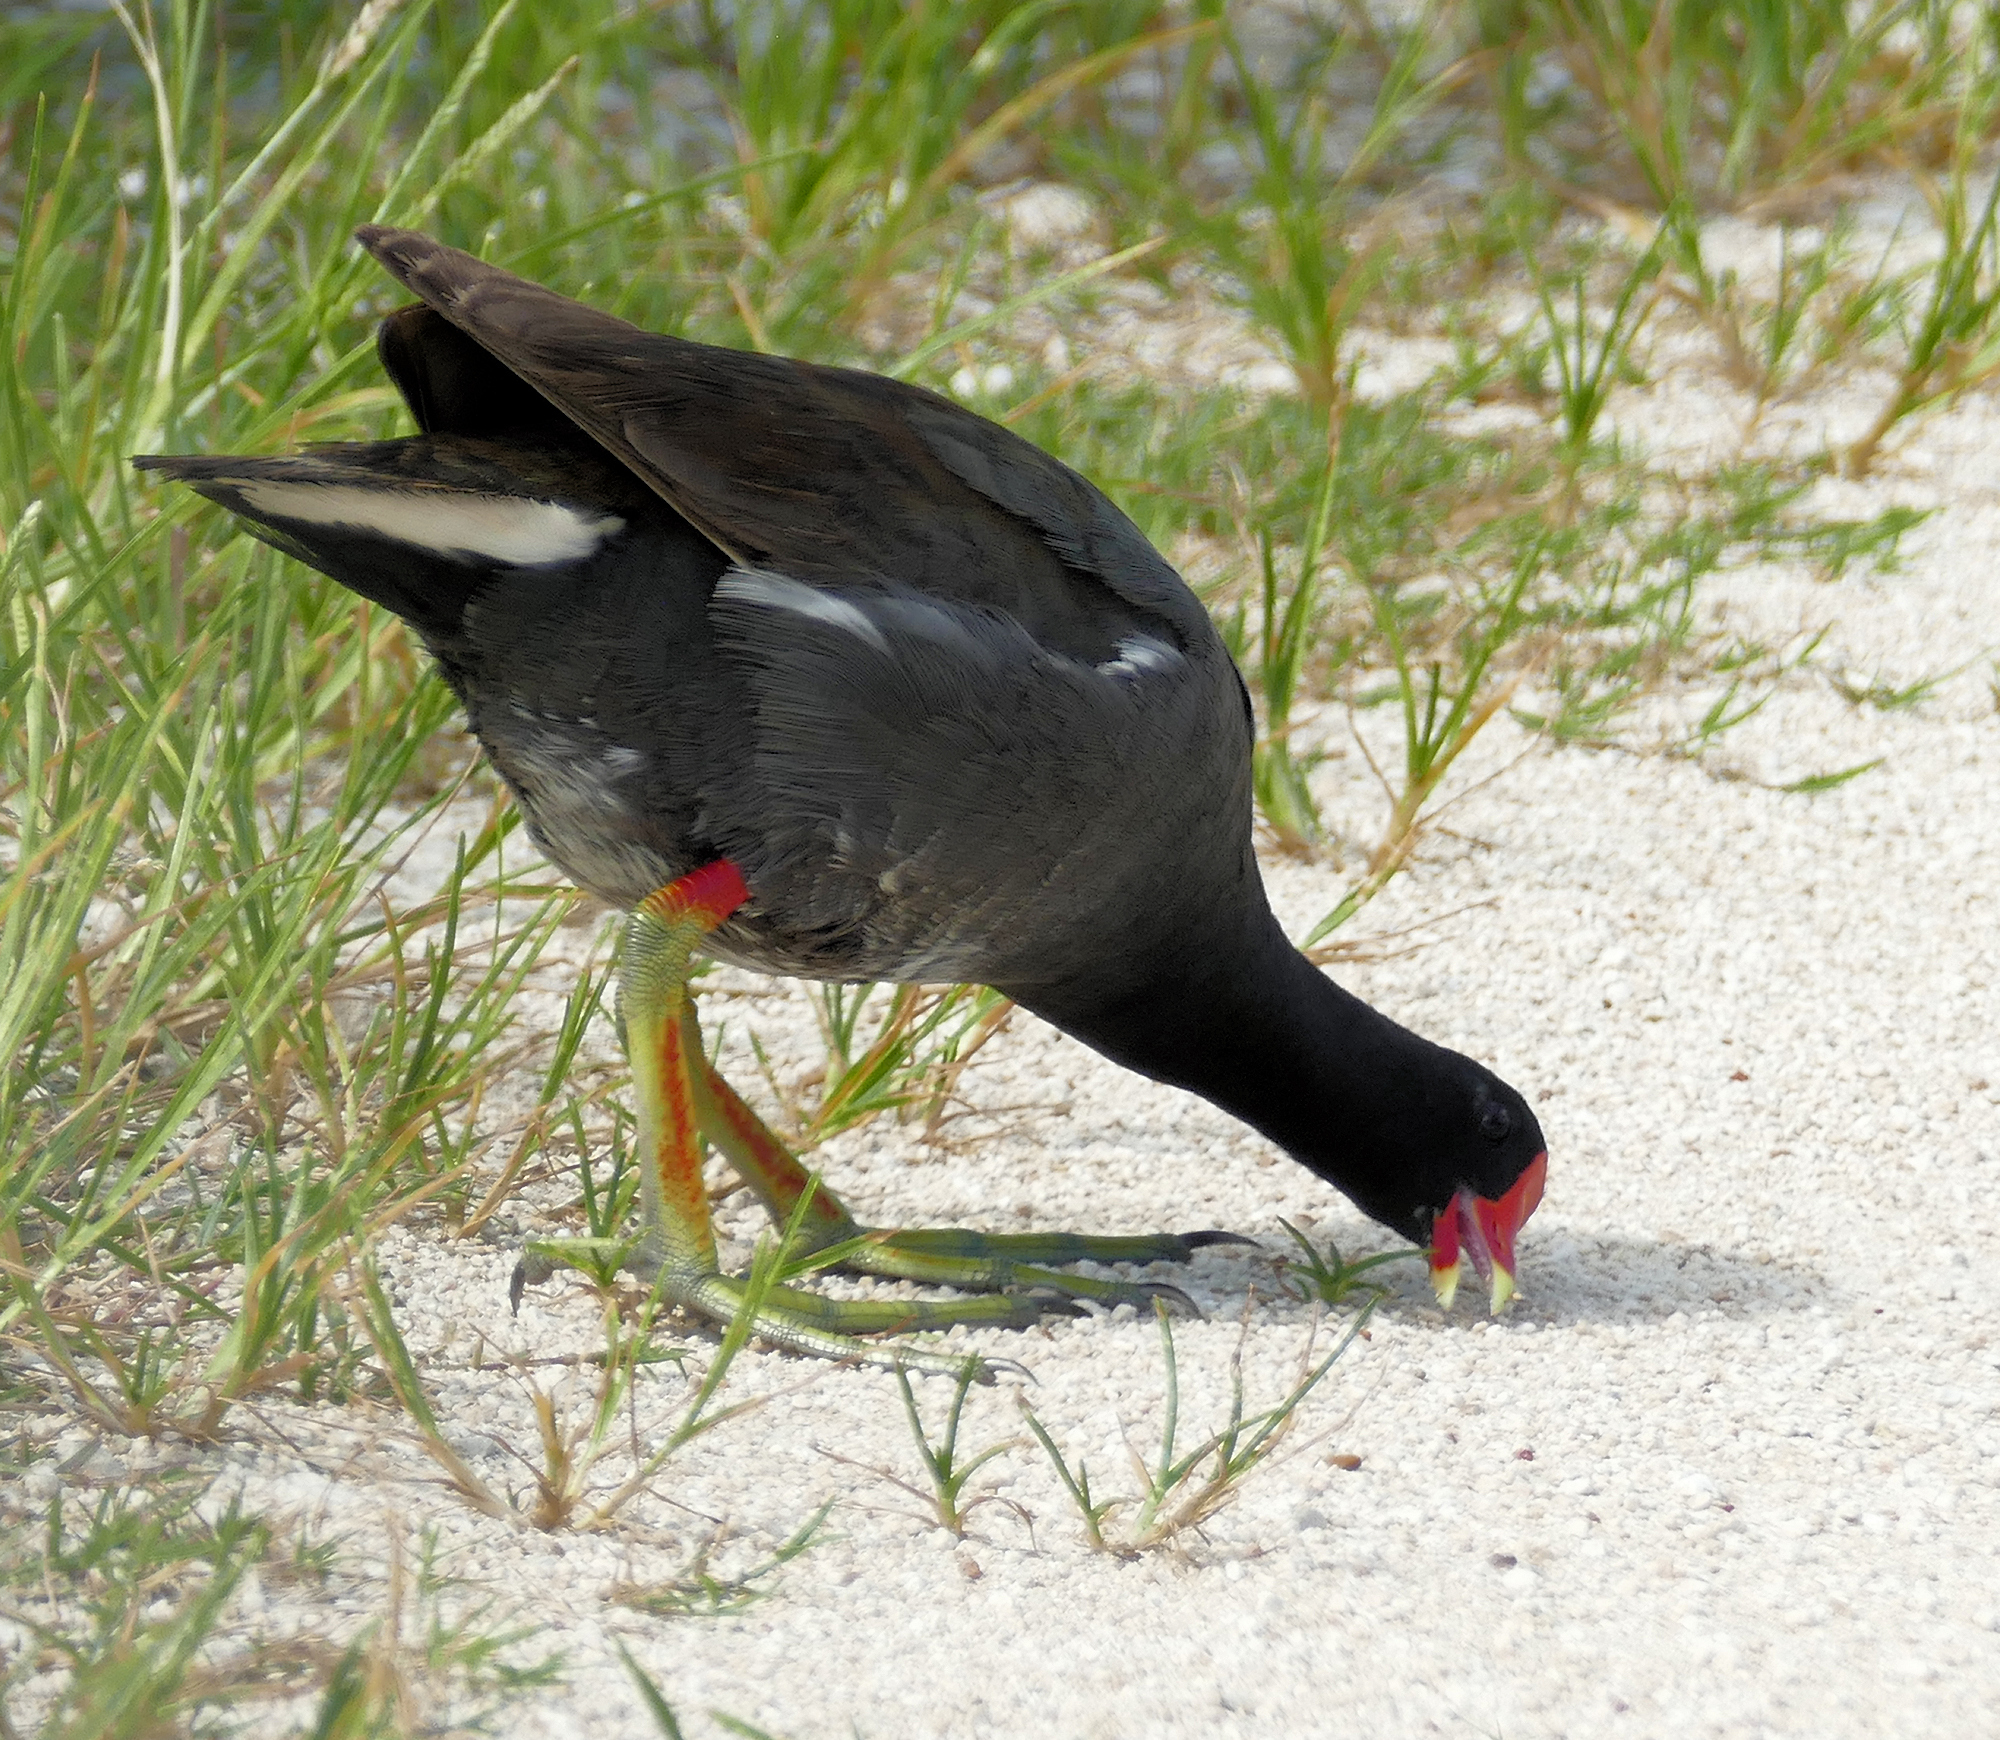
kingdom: Animalia
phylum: Chordata
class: Aves
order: Gruiformes
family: Rallidae
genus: Gallinula
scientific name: Gallinula chloropus
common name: Common moorhen
